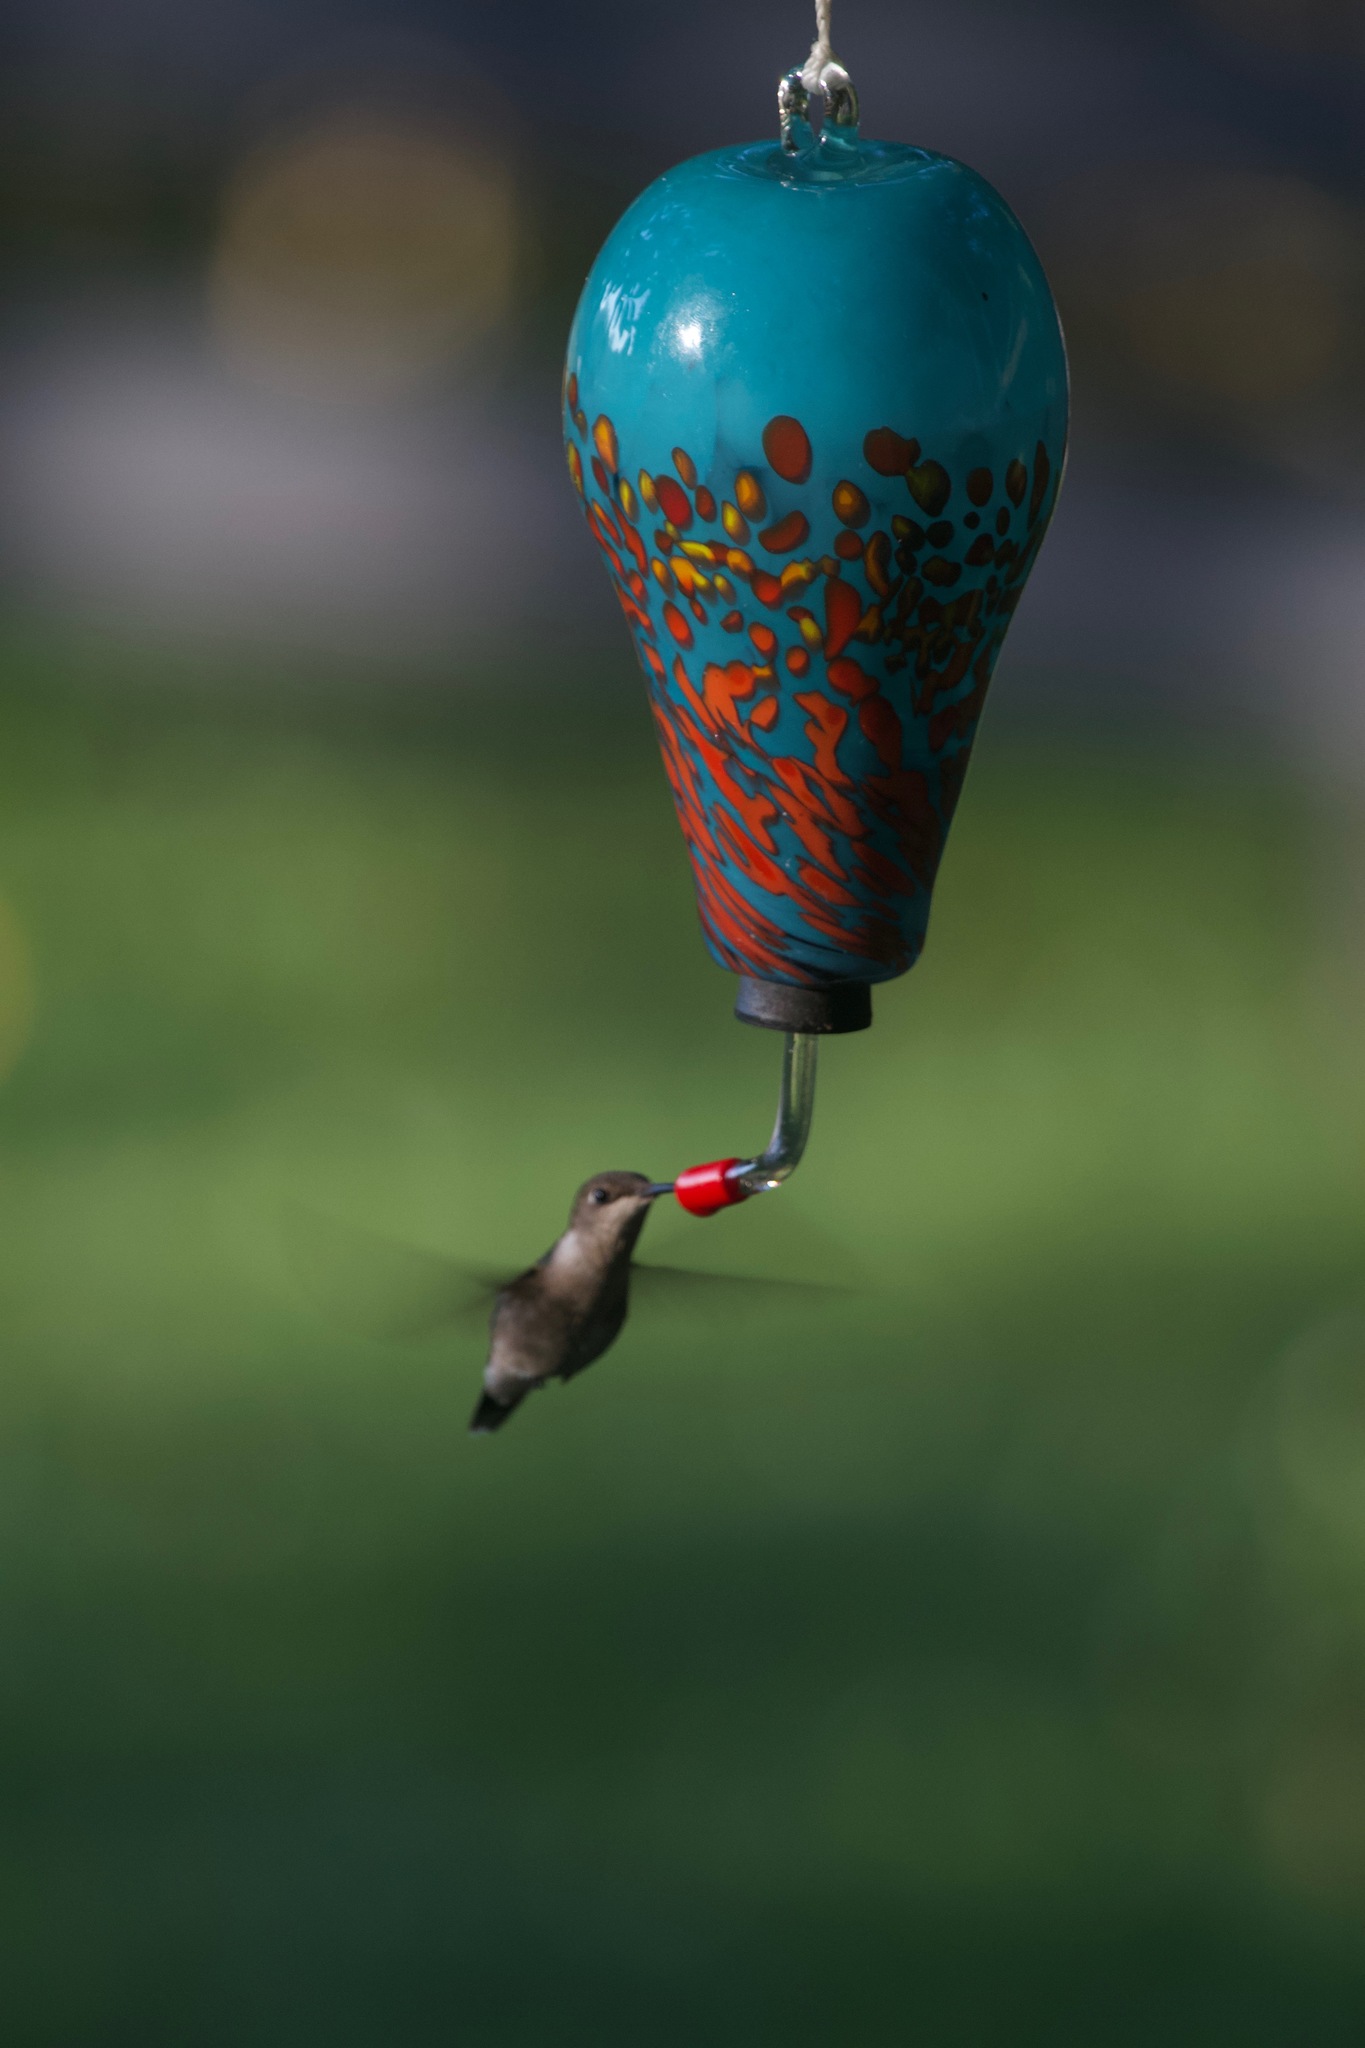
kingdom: Animalia
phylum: Chordata
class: Aves
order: Apodiformes
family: Trochilidae
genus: Archilochus
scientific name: Archilochus colubris
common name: Ruby-throated hummingbird
